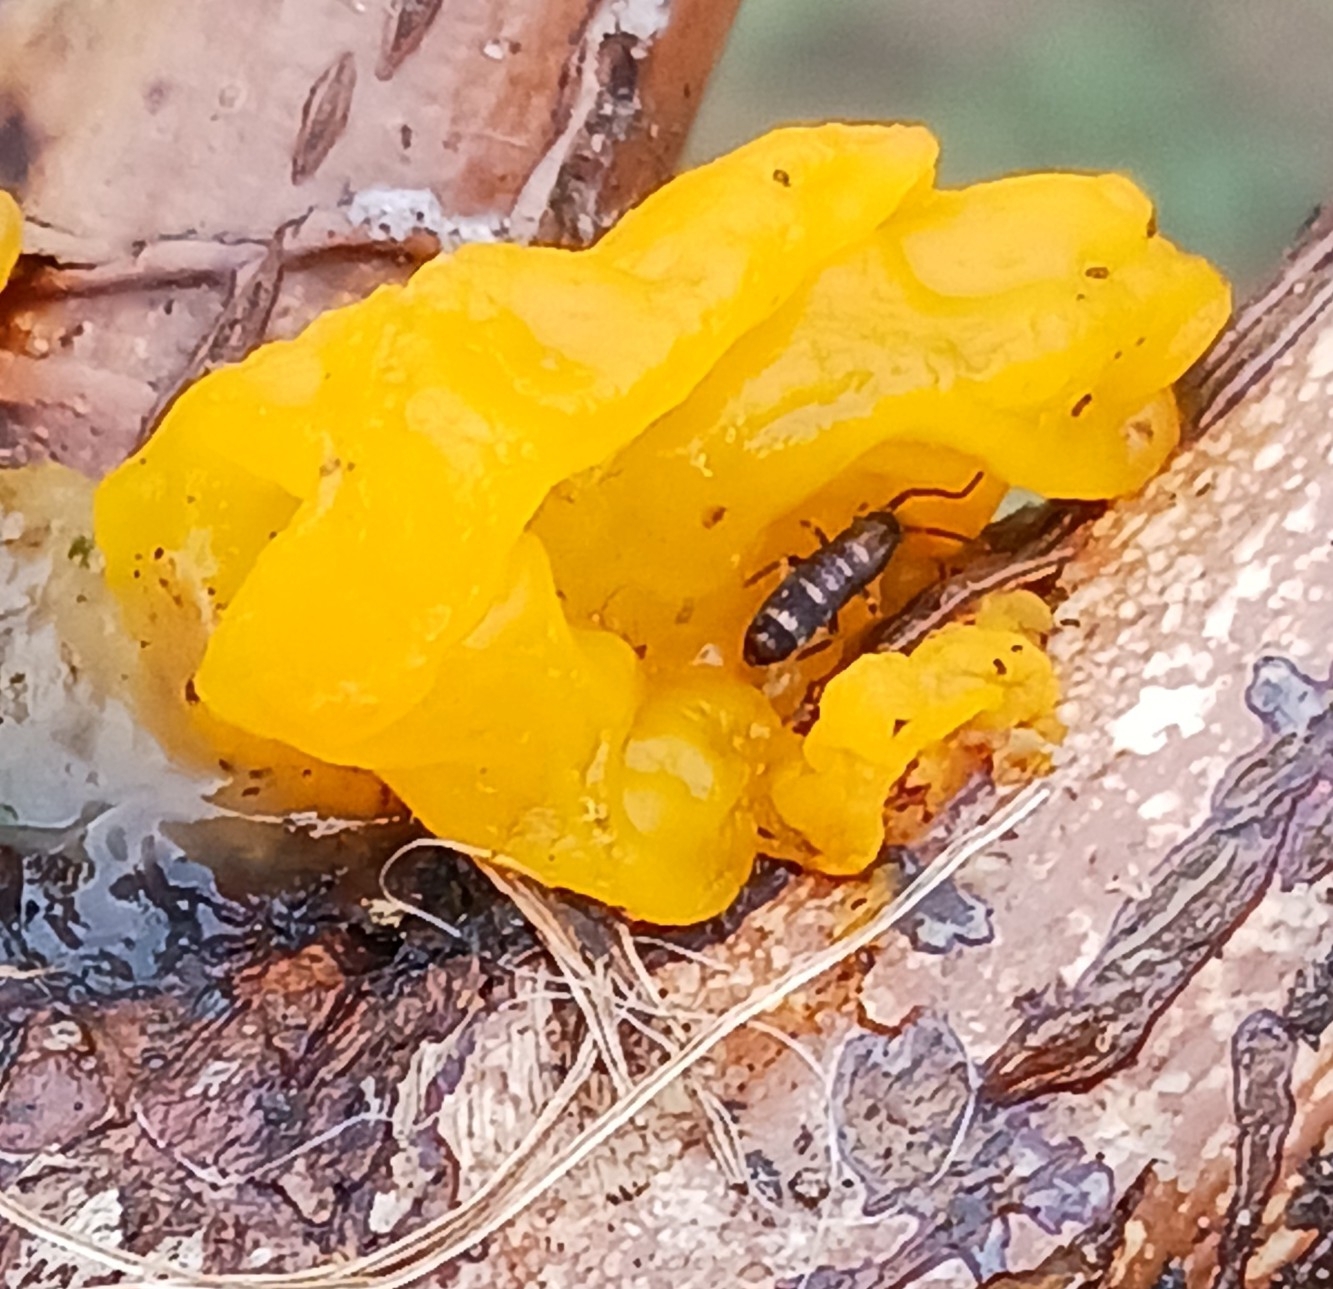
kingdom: Animalia
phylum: Arthropoda
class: Collembola
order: Entomobryomorpha
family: Tomoceridae
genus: Tomocerus
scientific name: Tomocerus vulgaris
